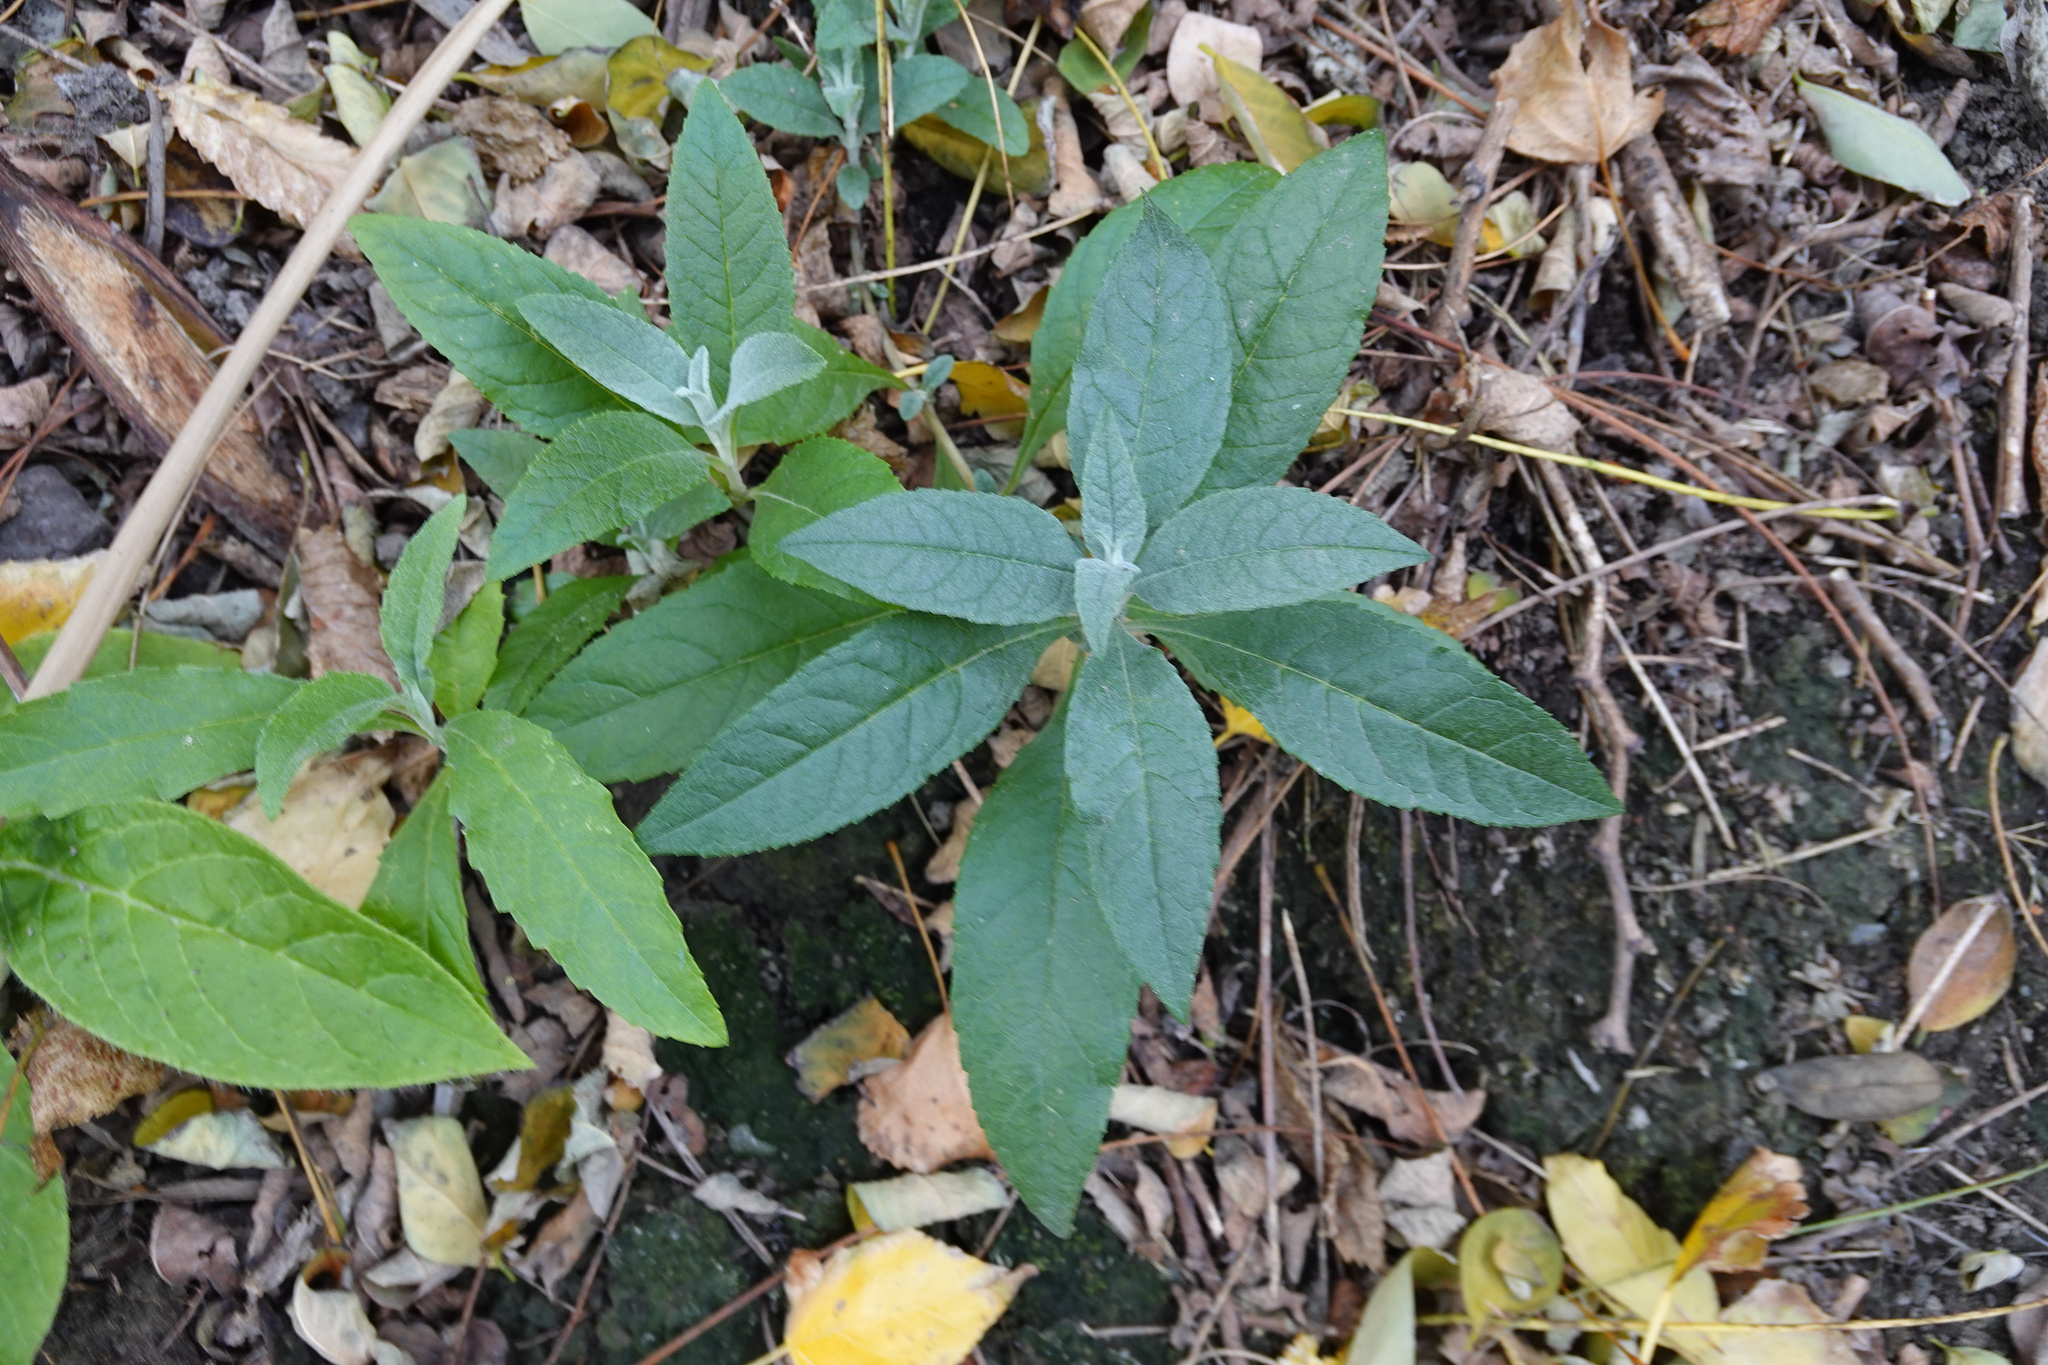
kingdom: Plantae
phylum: Tracheophyta
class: Magnoliopsida
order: Lamiales
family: Scrophulariaceae
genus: Buddleja
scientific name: Buddleja davidii
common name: Butterfly-bush
